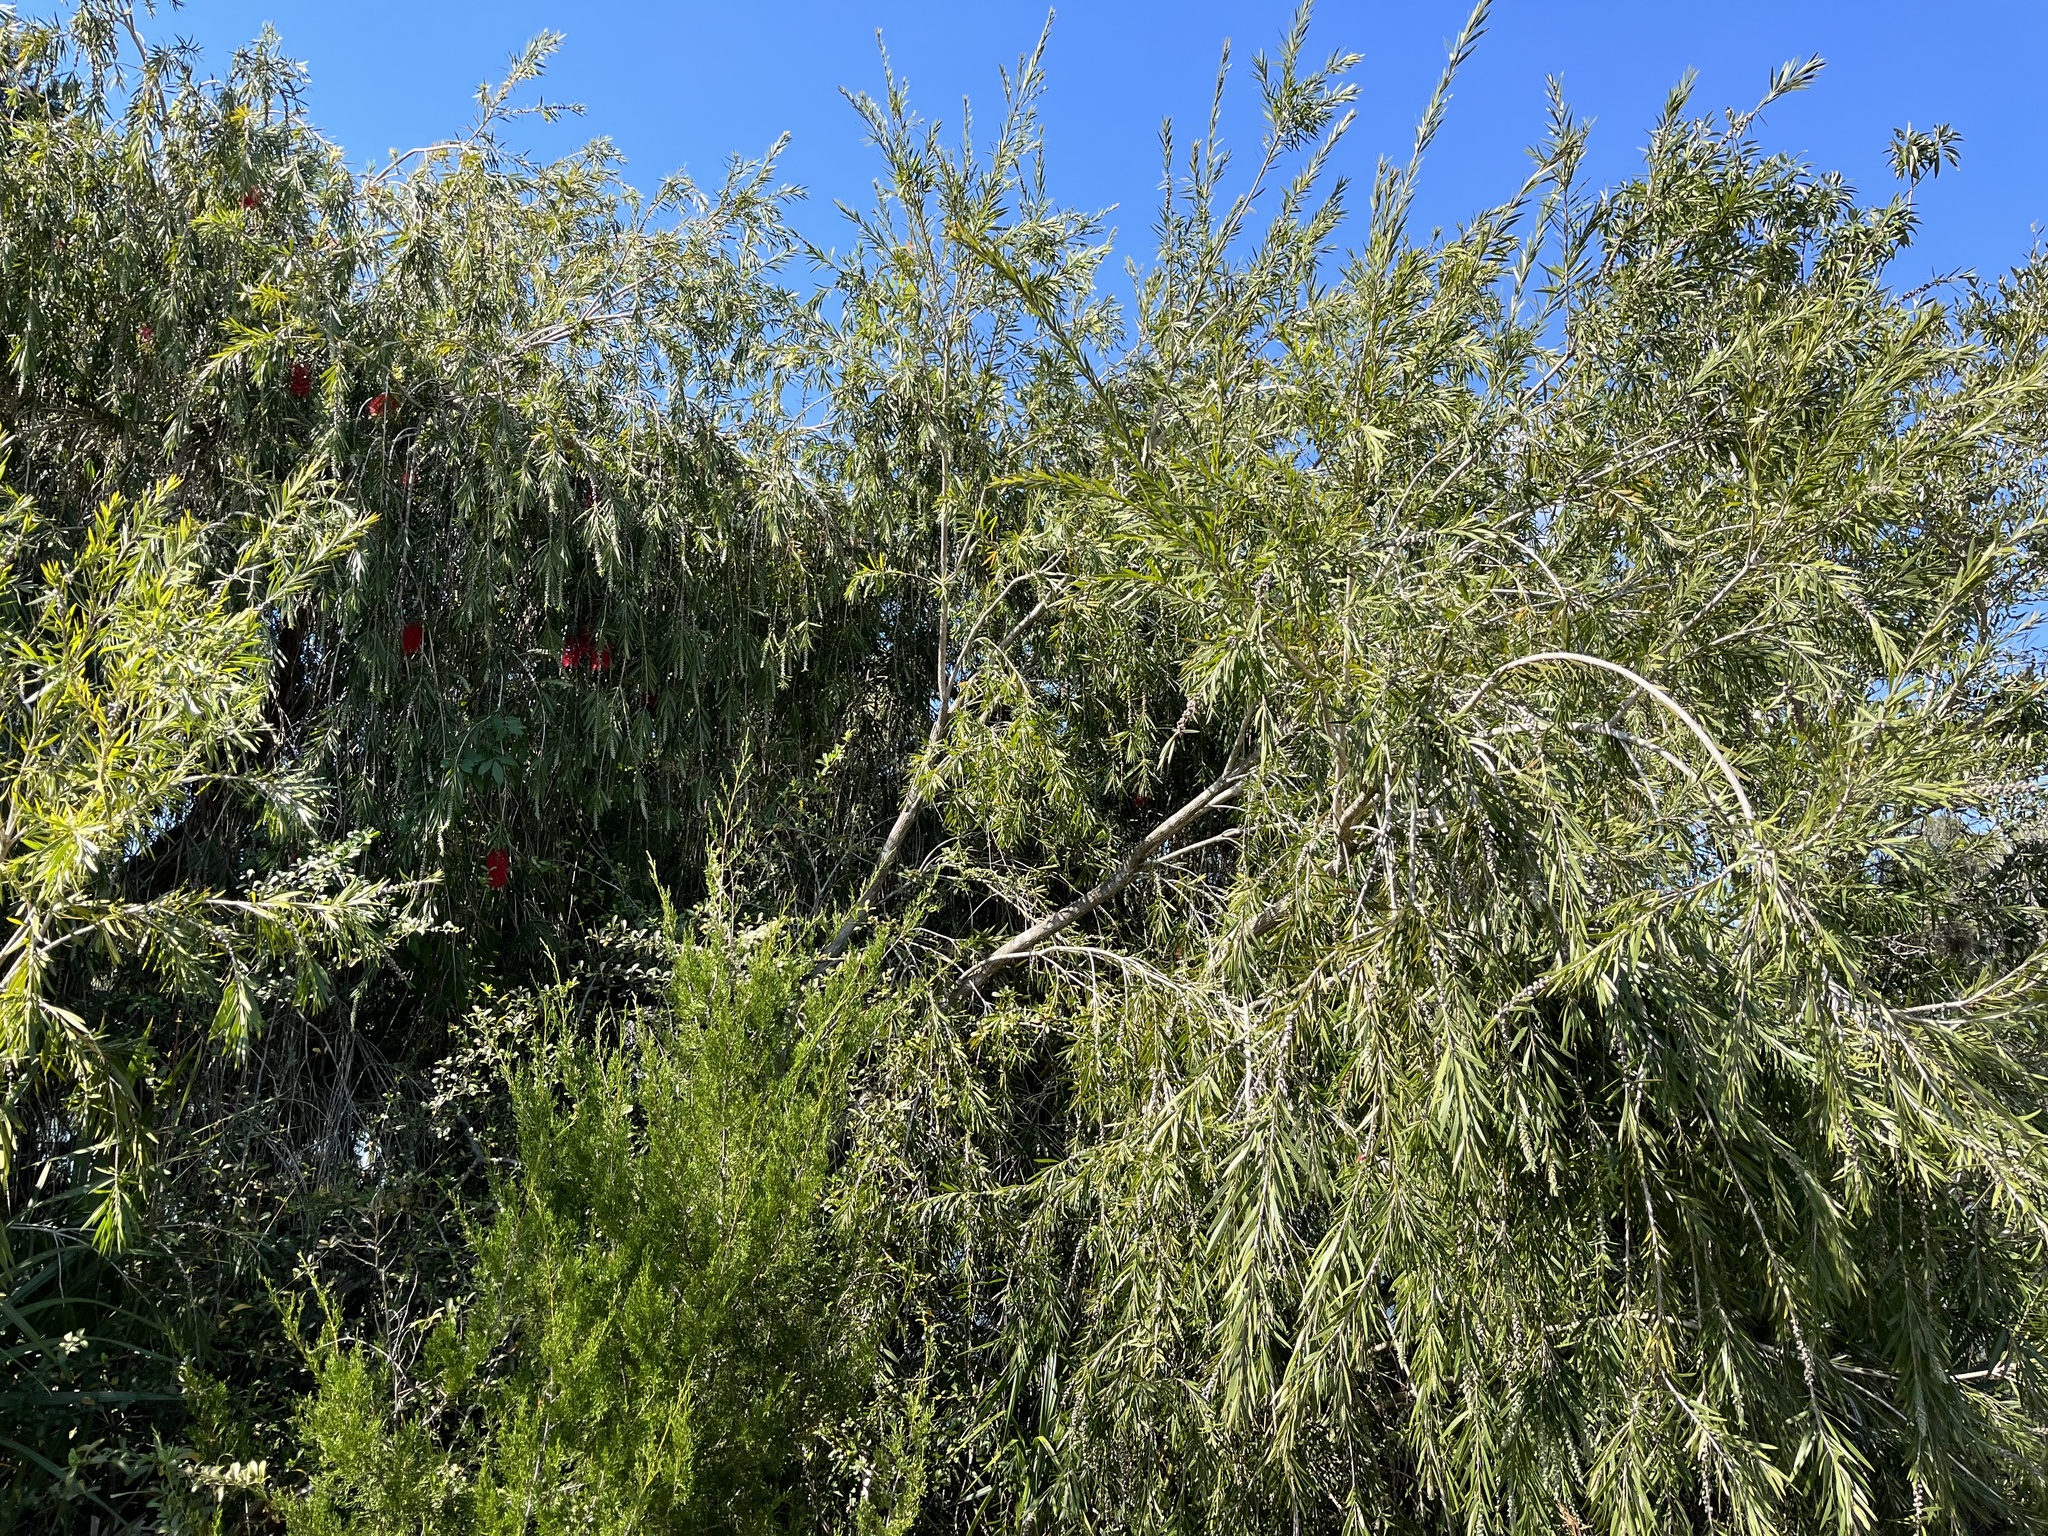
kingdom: Plantae
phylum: Tracheophyta
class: Magnoliopsida
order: Myrtales
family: Myrtaceae
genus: Callistemon
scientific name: Callistemon viminalis
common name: Drooping bottlebrush
